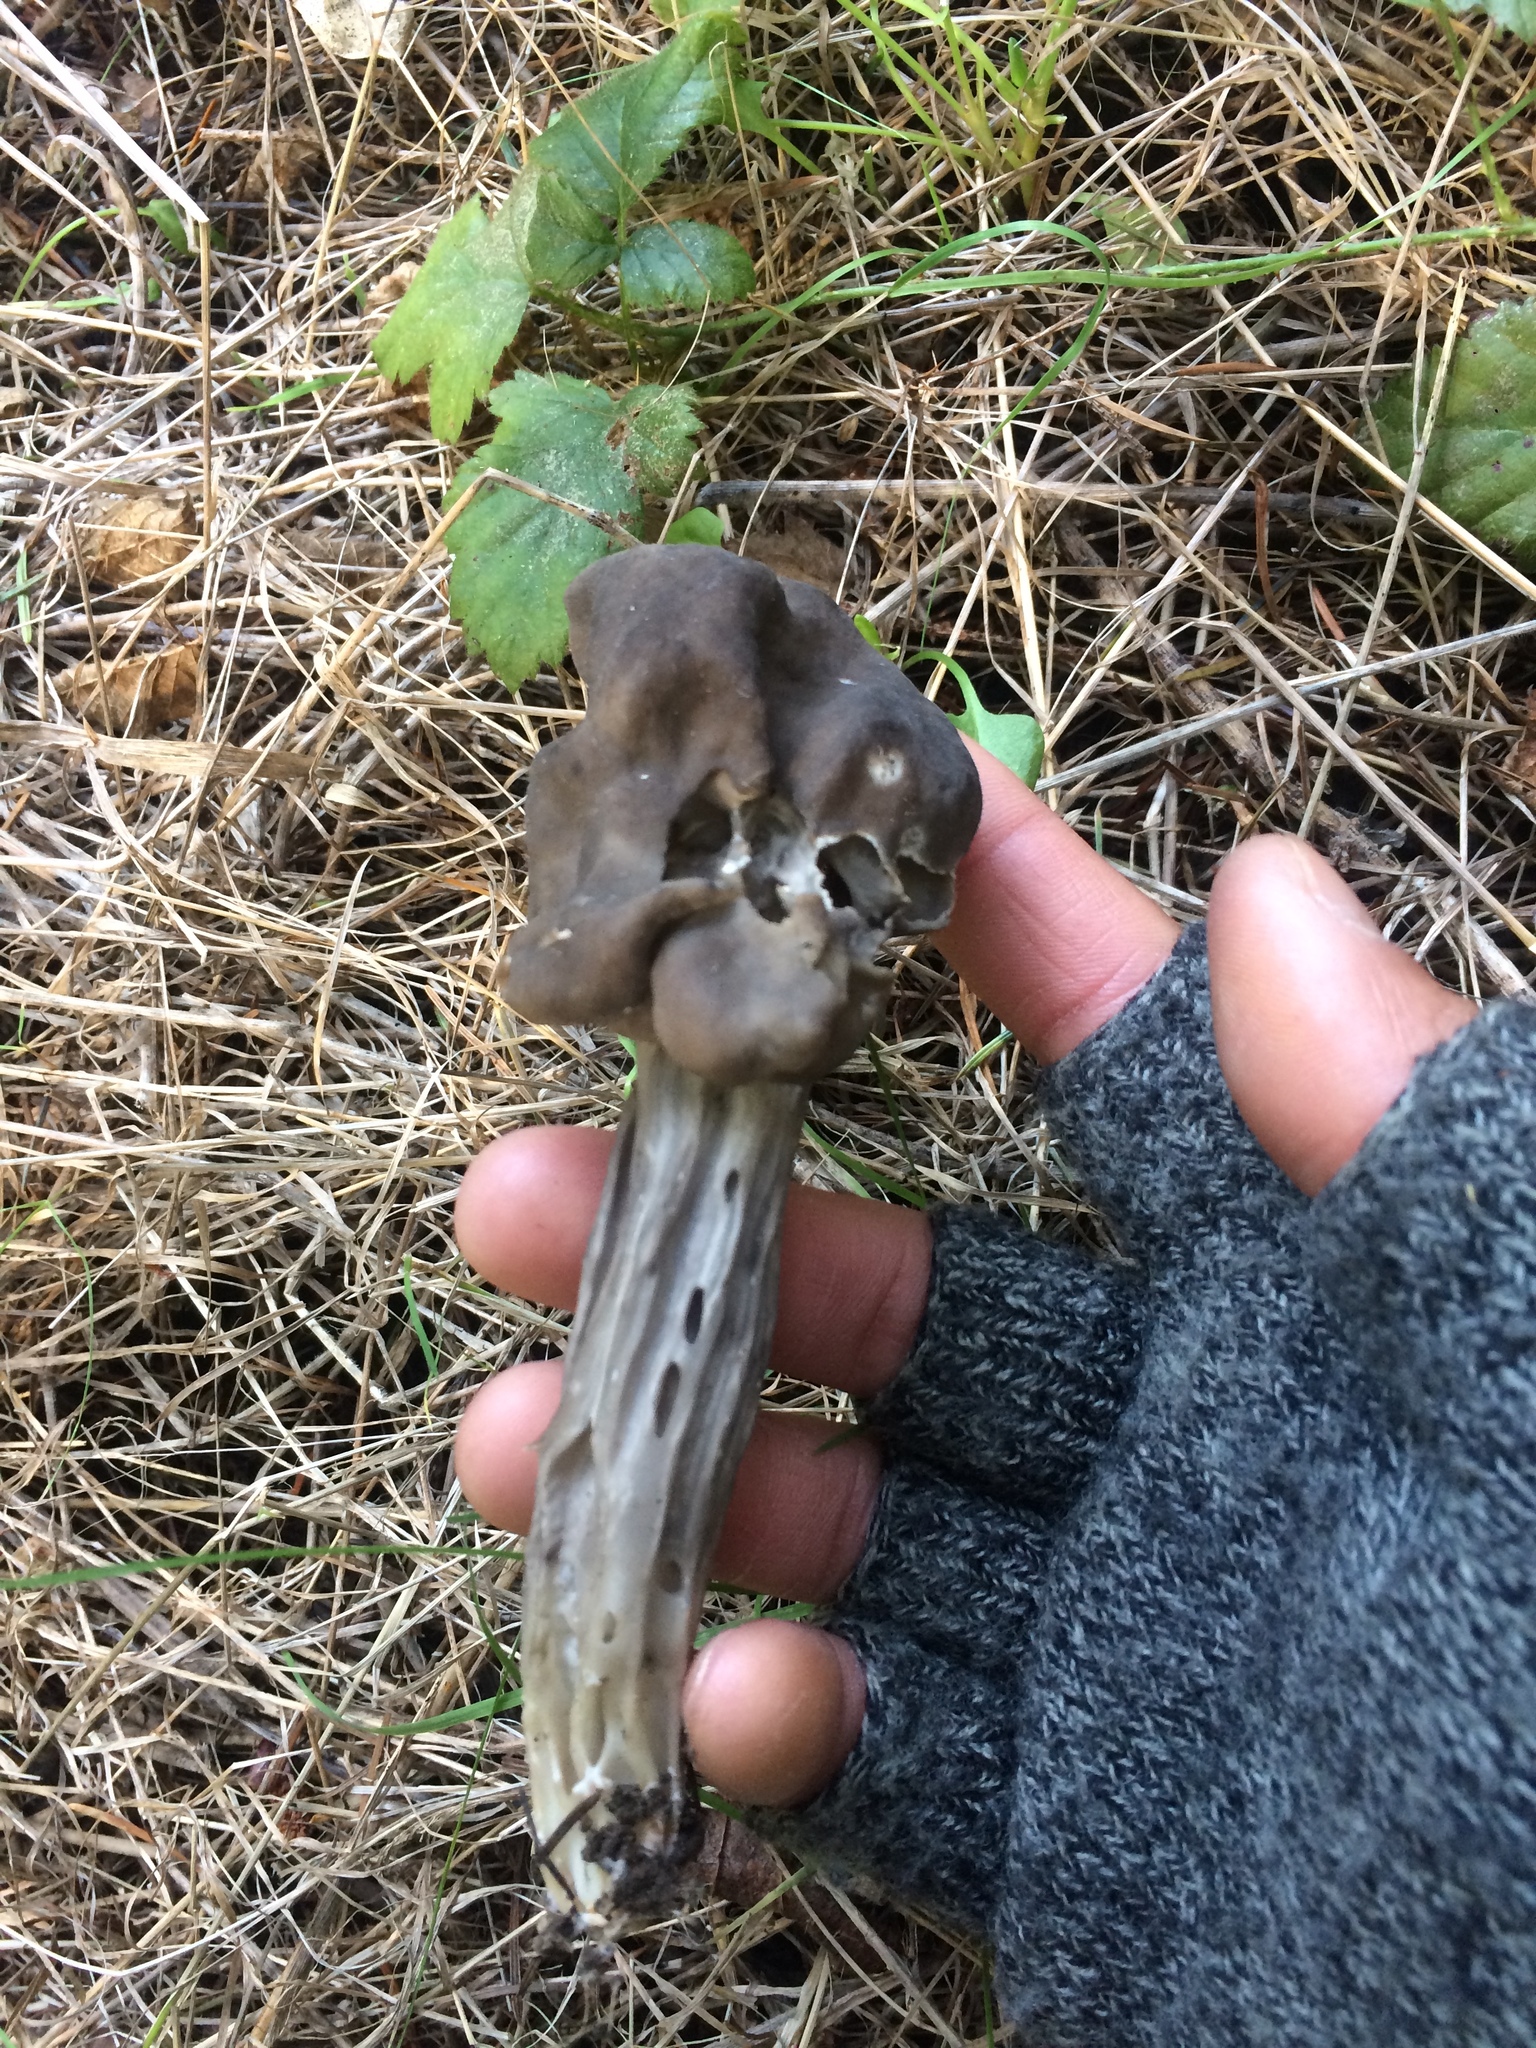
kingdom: Fungi
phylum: Ascomycota
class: Pezizomycetes
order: Pezizales
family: Helvellaceae
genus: Helvella
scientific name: Helvella vespertina
